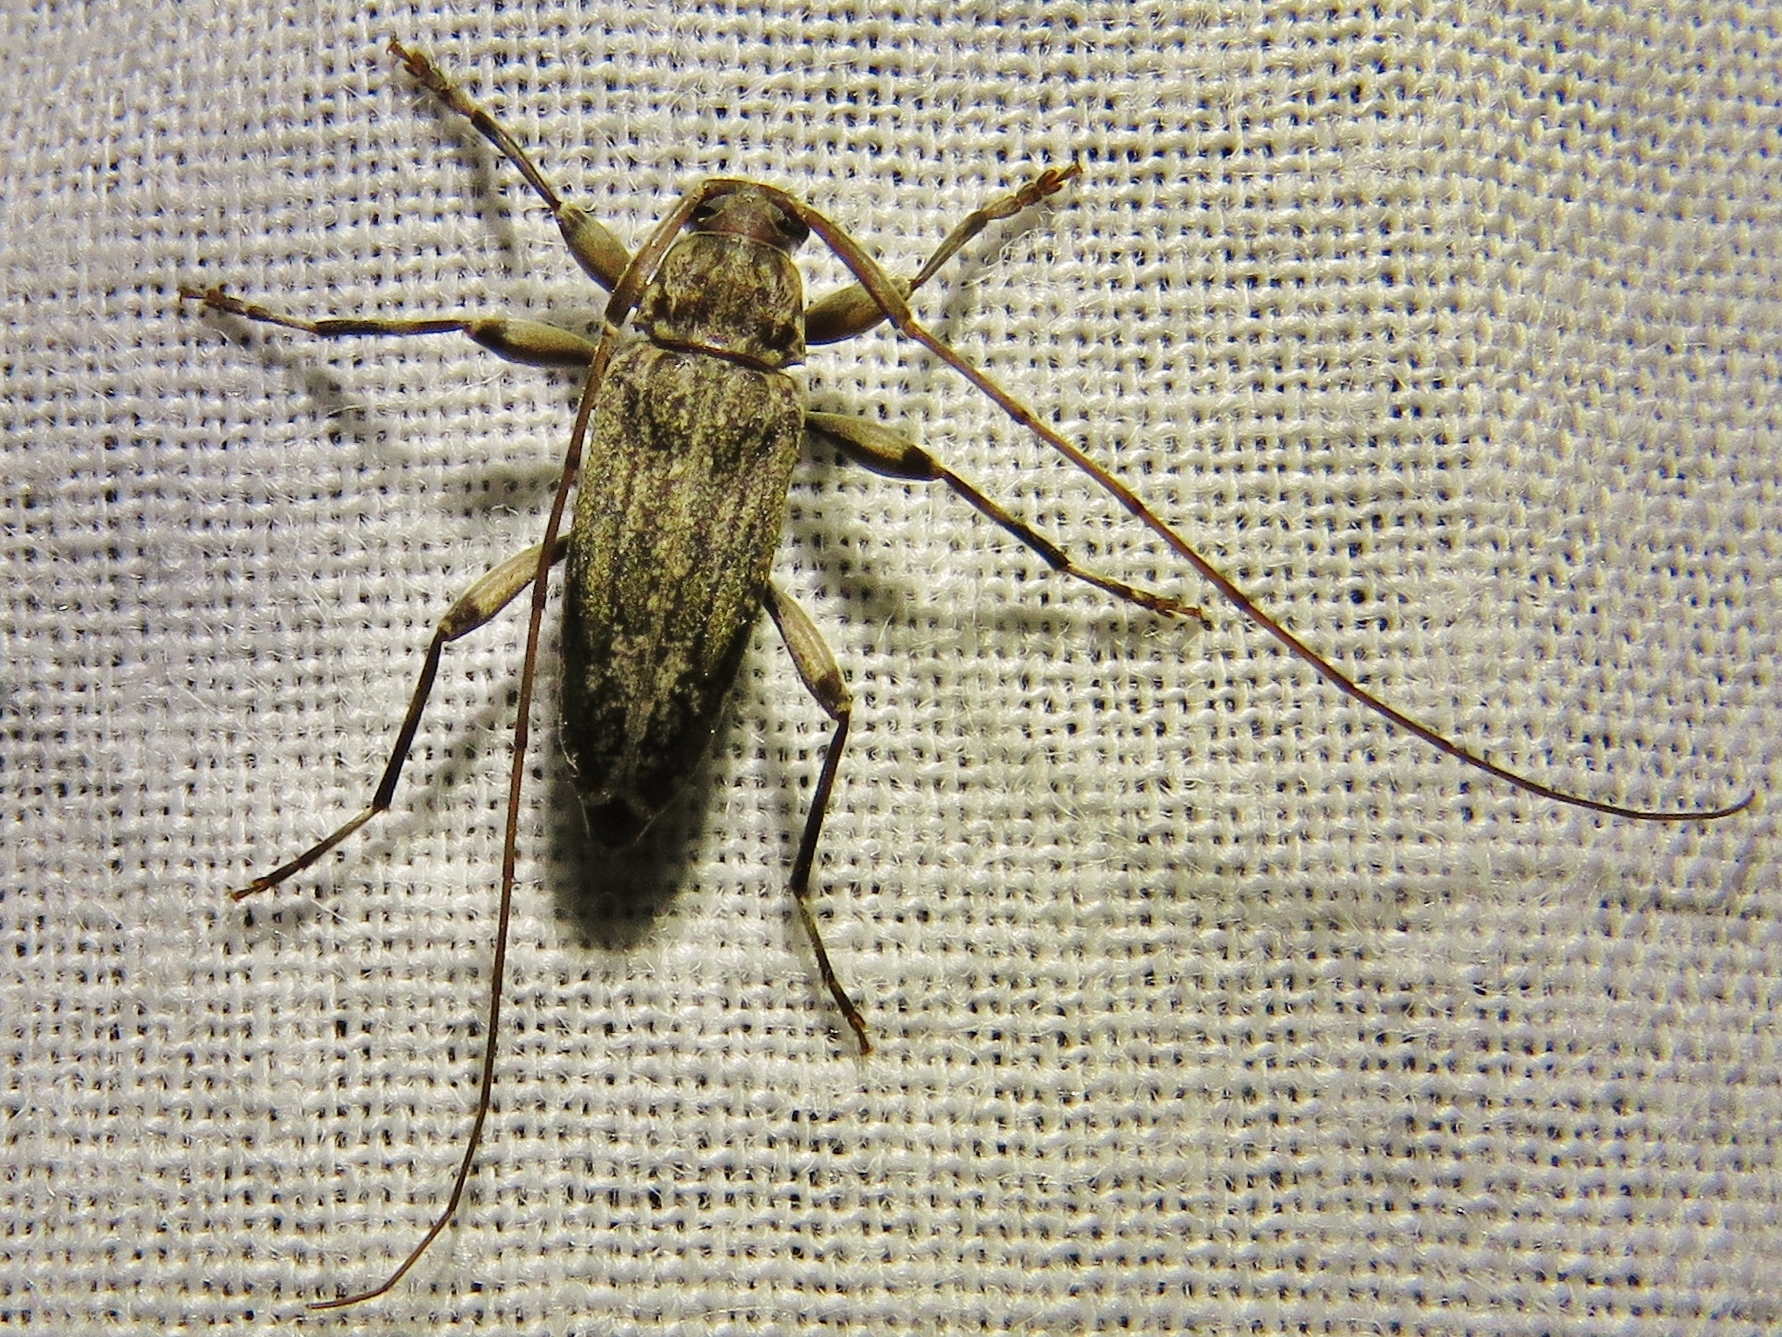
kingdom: Animalia
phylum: Arthropoda
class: Insecta
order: Coleoptera
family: Cerambycidae
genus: Lepturges
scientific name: Lepturges confluens
